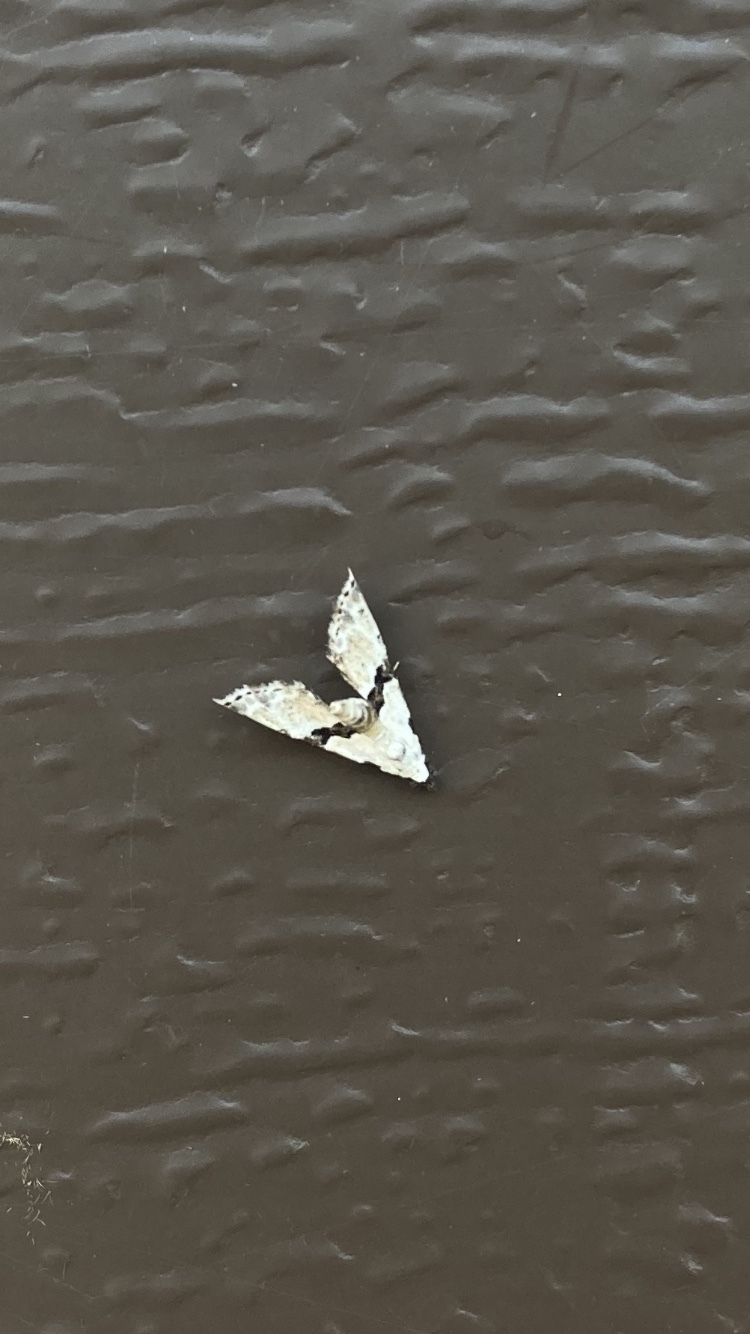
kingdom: Animalia
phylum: Arthropoda
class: Insecta
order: Lepidoptera
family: Noctuidae
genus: Nigetia
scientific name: Nigetia formosalis
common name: Thin-winged owlet
